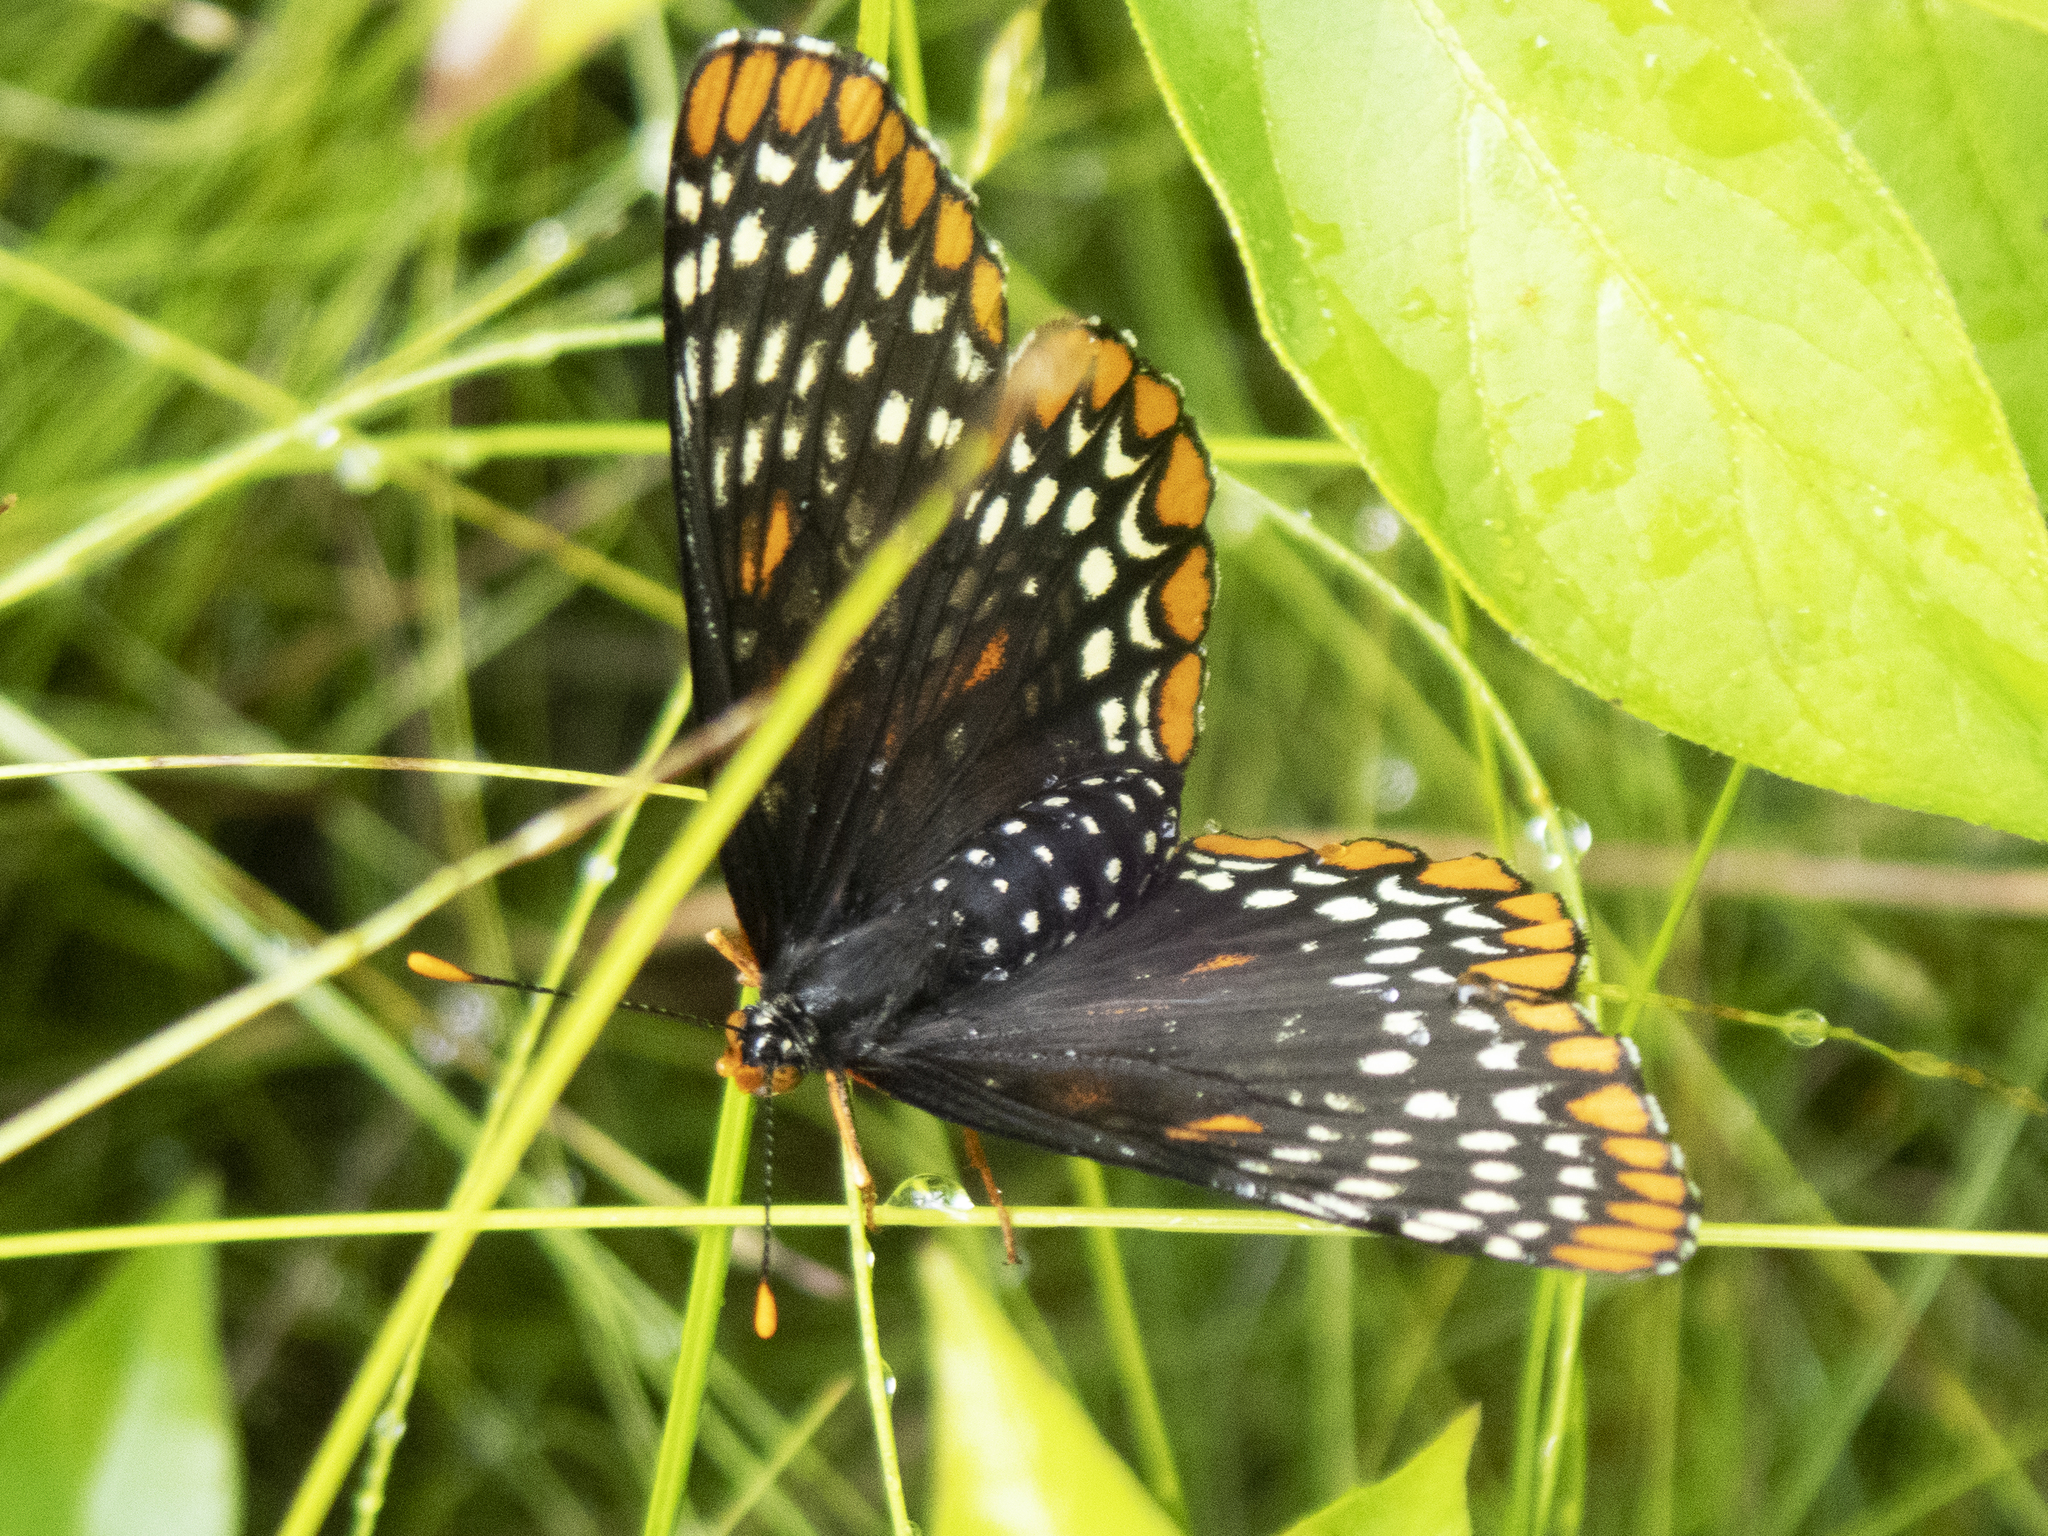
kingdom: Animalia
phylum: Arthropoda
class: Insecta
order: Lepidoptera
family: Nymphalidae
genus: Euphydryas
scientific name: Euphydryas phaeton
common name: Baltimore checkerspot
